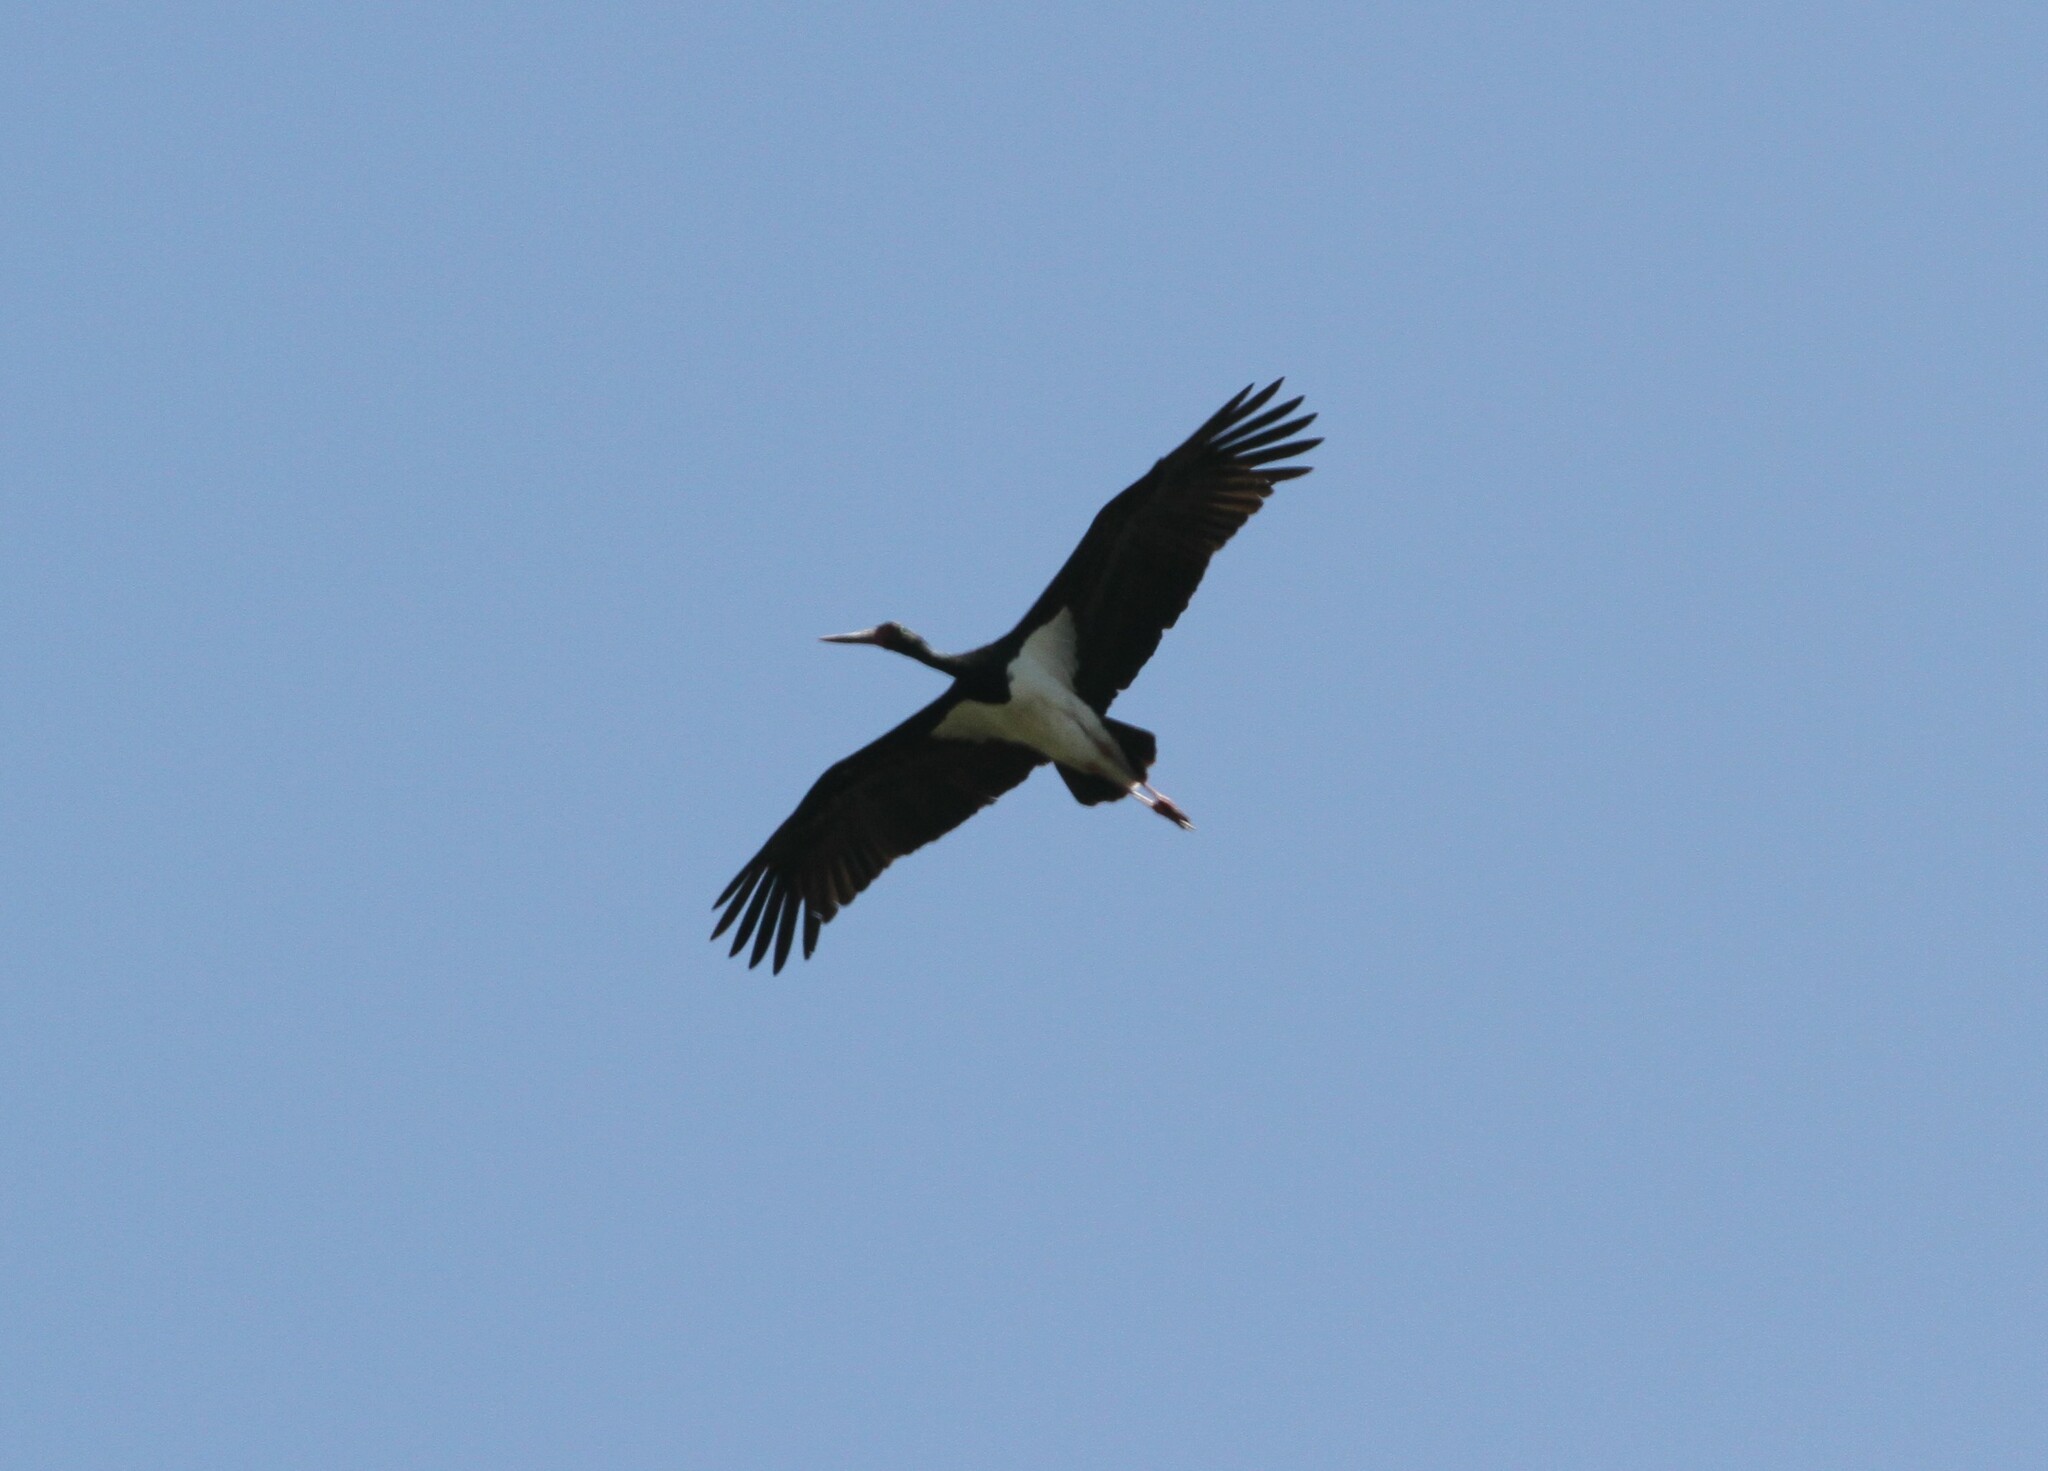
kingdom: Animalia
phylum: Chordata
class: Aves
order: Ciconiiformes
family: Ciconiidae
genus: Ciconia
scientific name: Ciconia nigra
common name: Black stork
